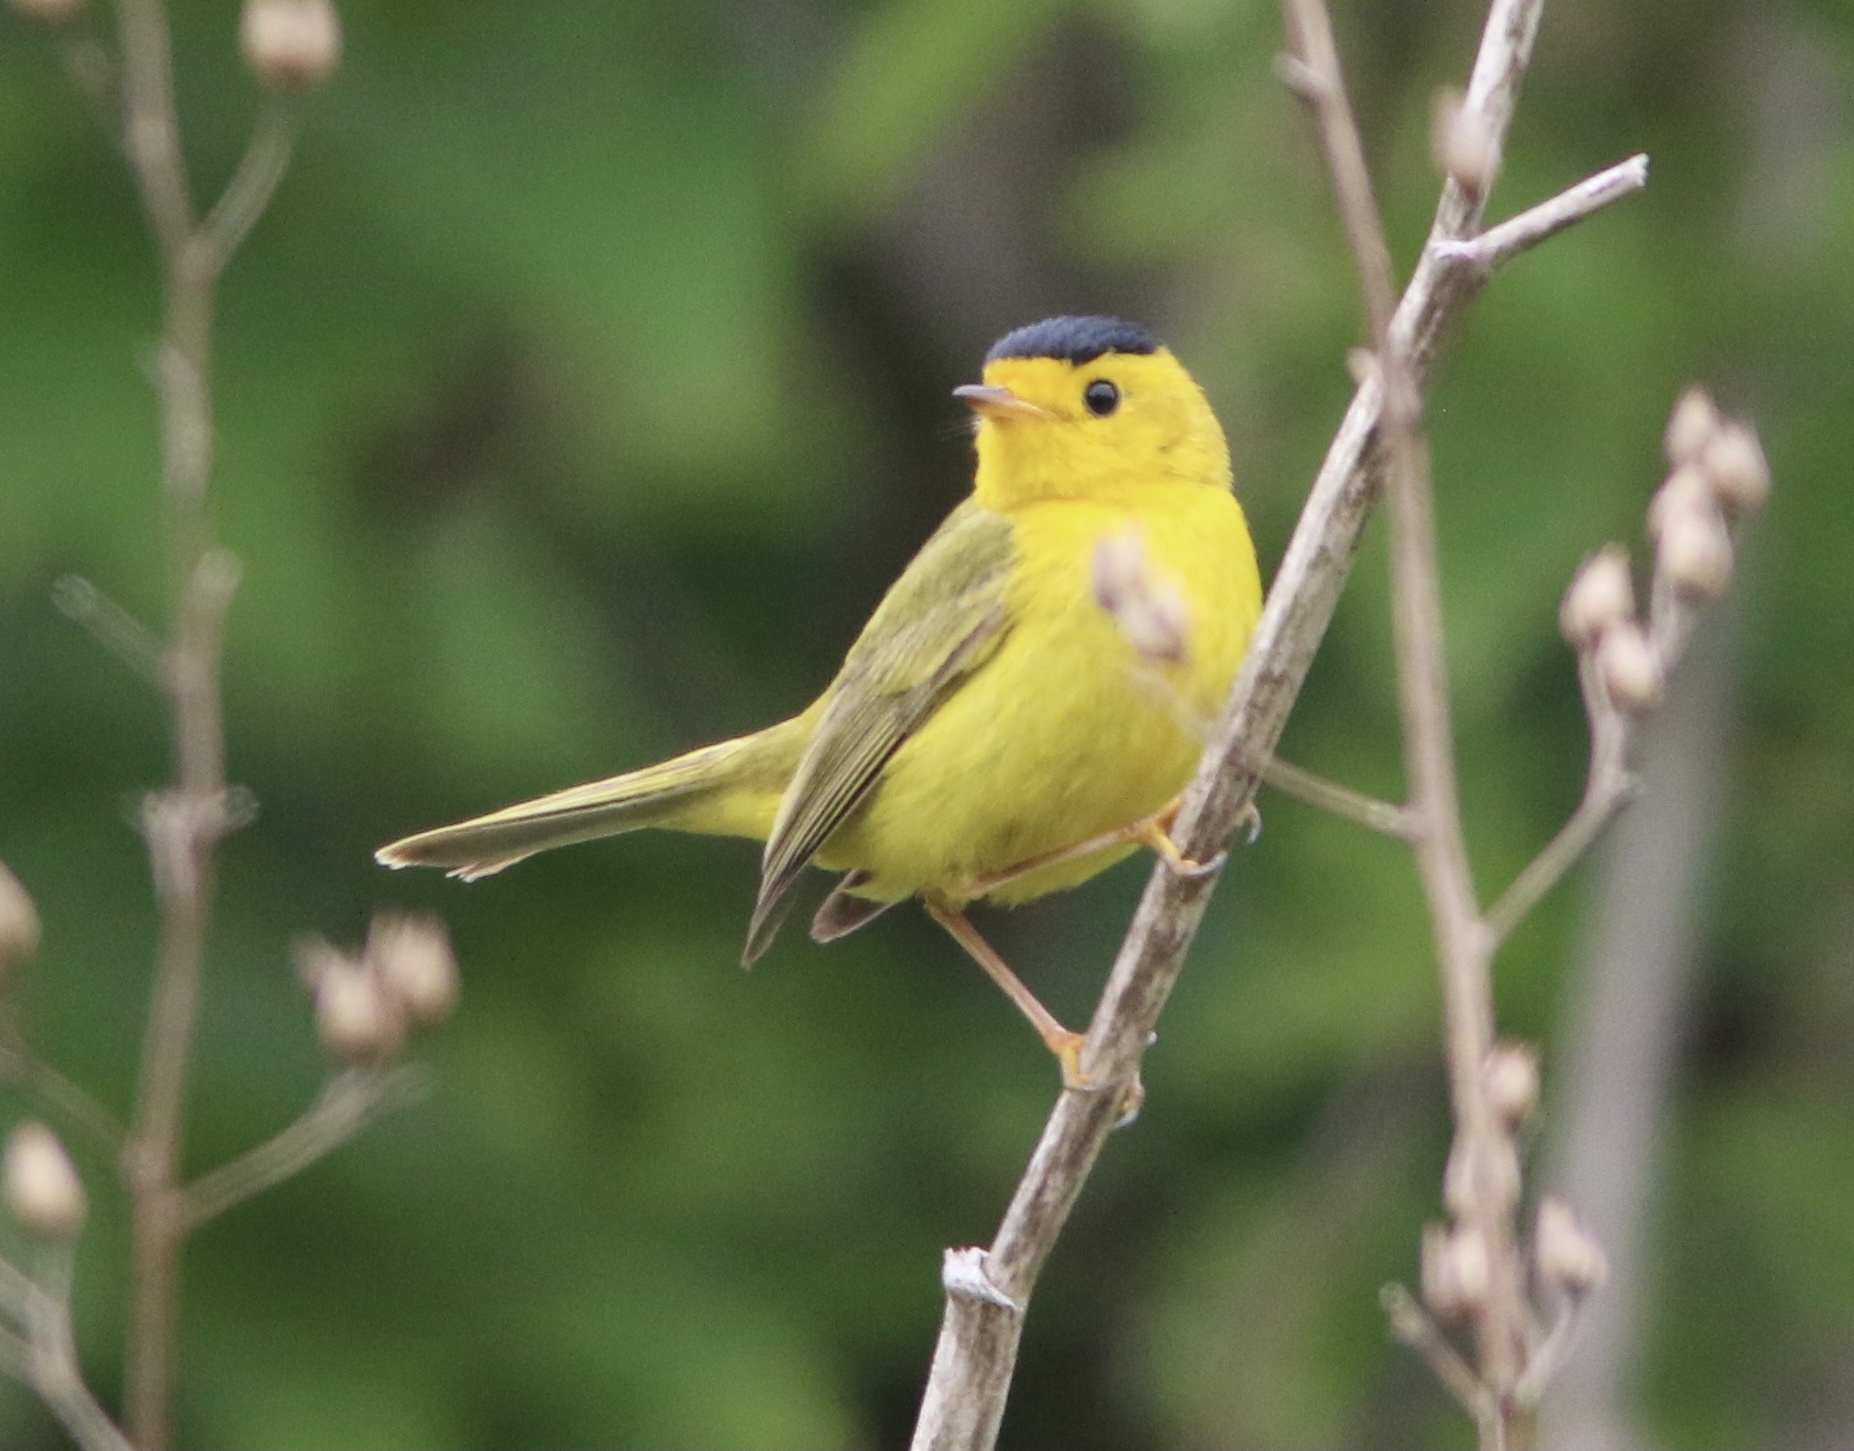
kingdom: Animalia
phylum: Chordata
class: Aves
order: Passeriformes
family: Parulidae
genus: Cardellina
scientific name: Cardellina pusilla
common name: Wilson's warbler
